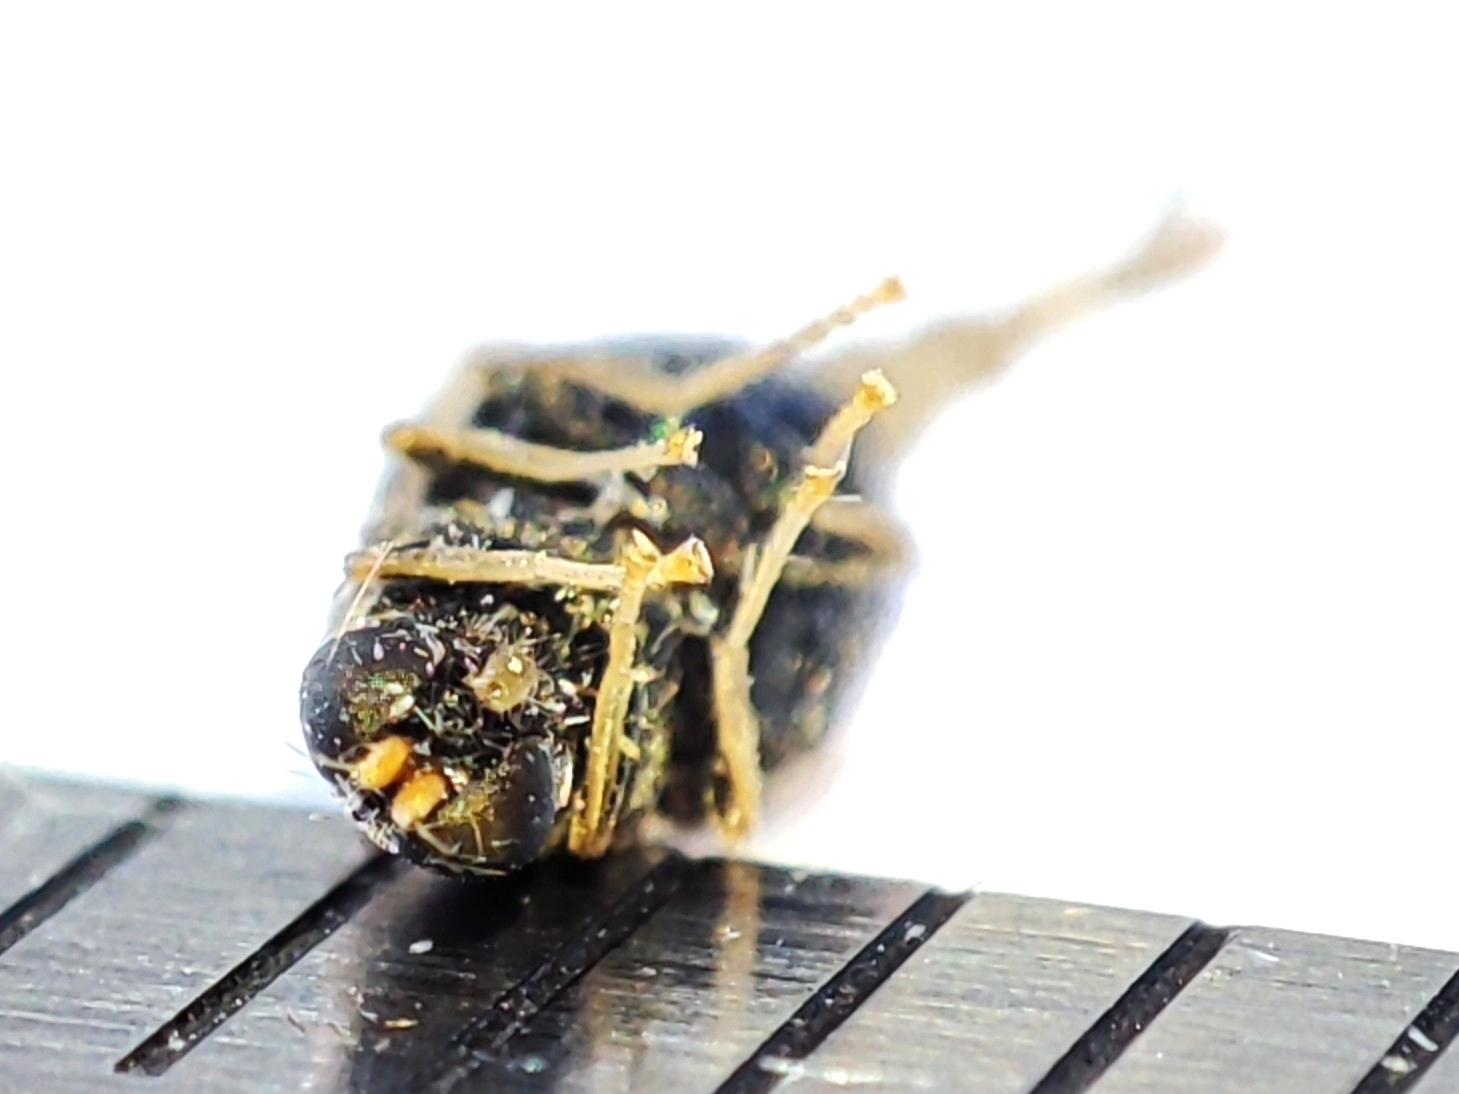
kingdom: Animalia
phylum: Arthropoda
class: Insecta
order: Diptera
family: Stratiomyidae
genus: Pachygaster
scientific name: Pachygaster atra
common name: Dark-winged black
